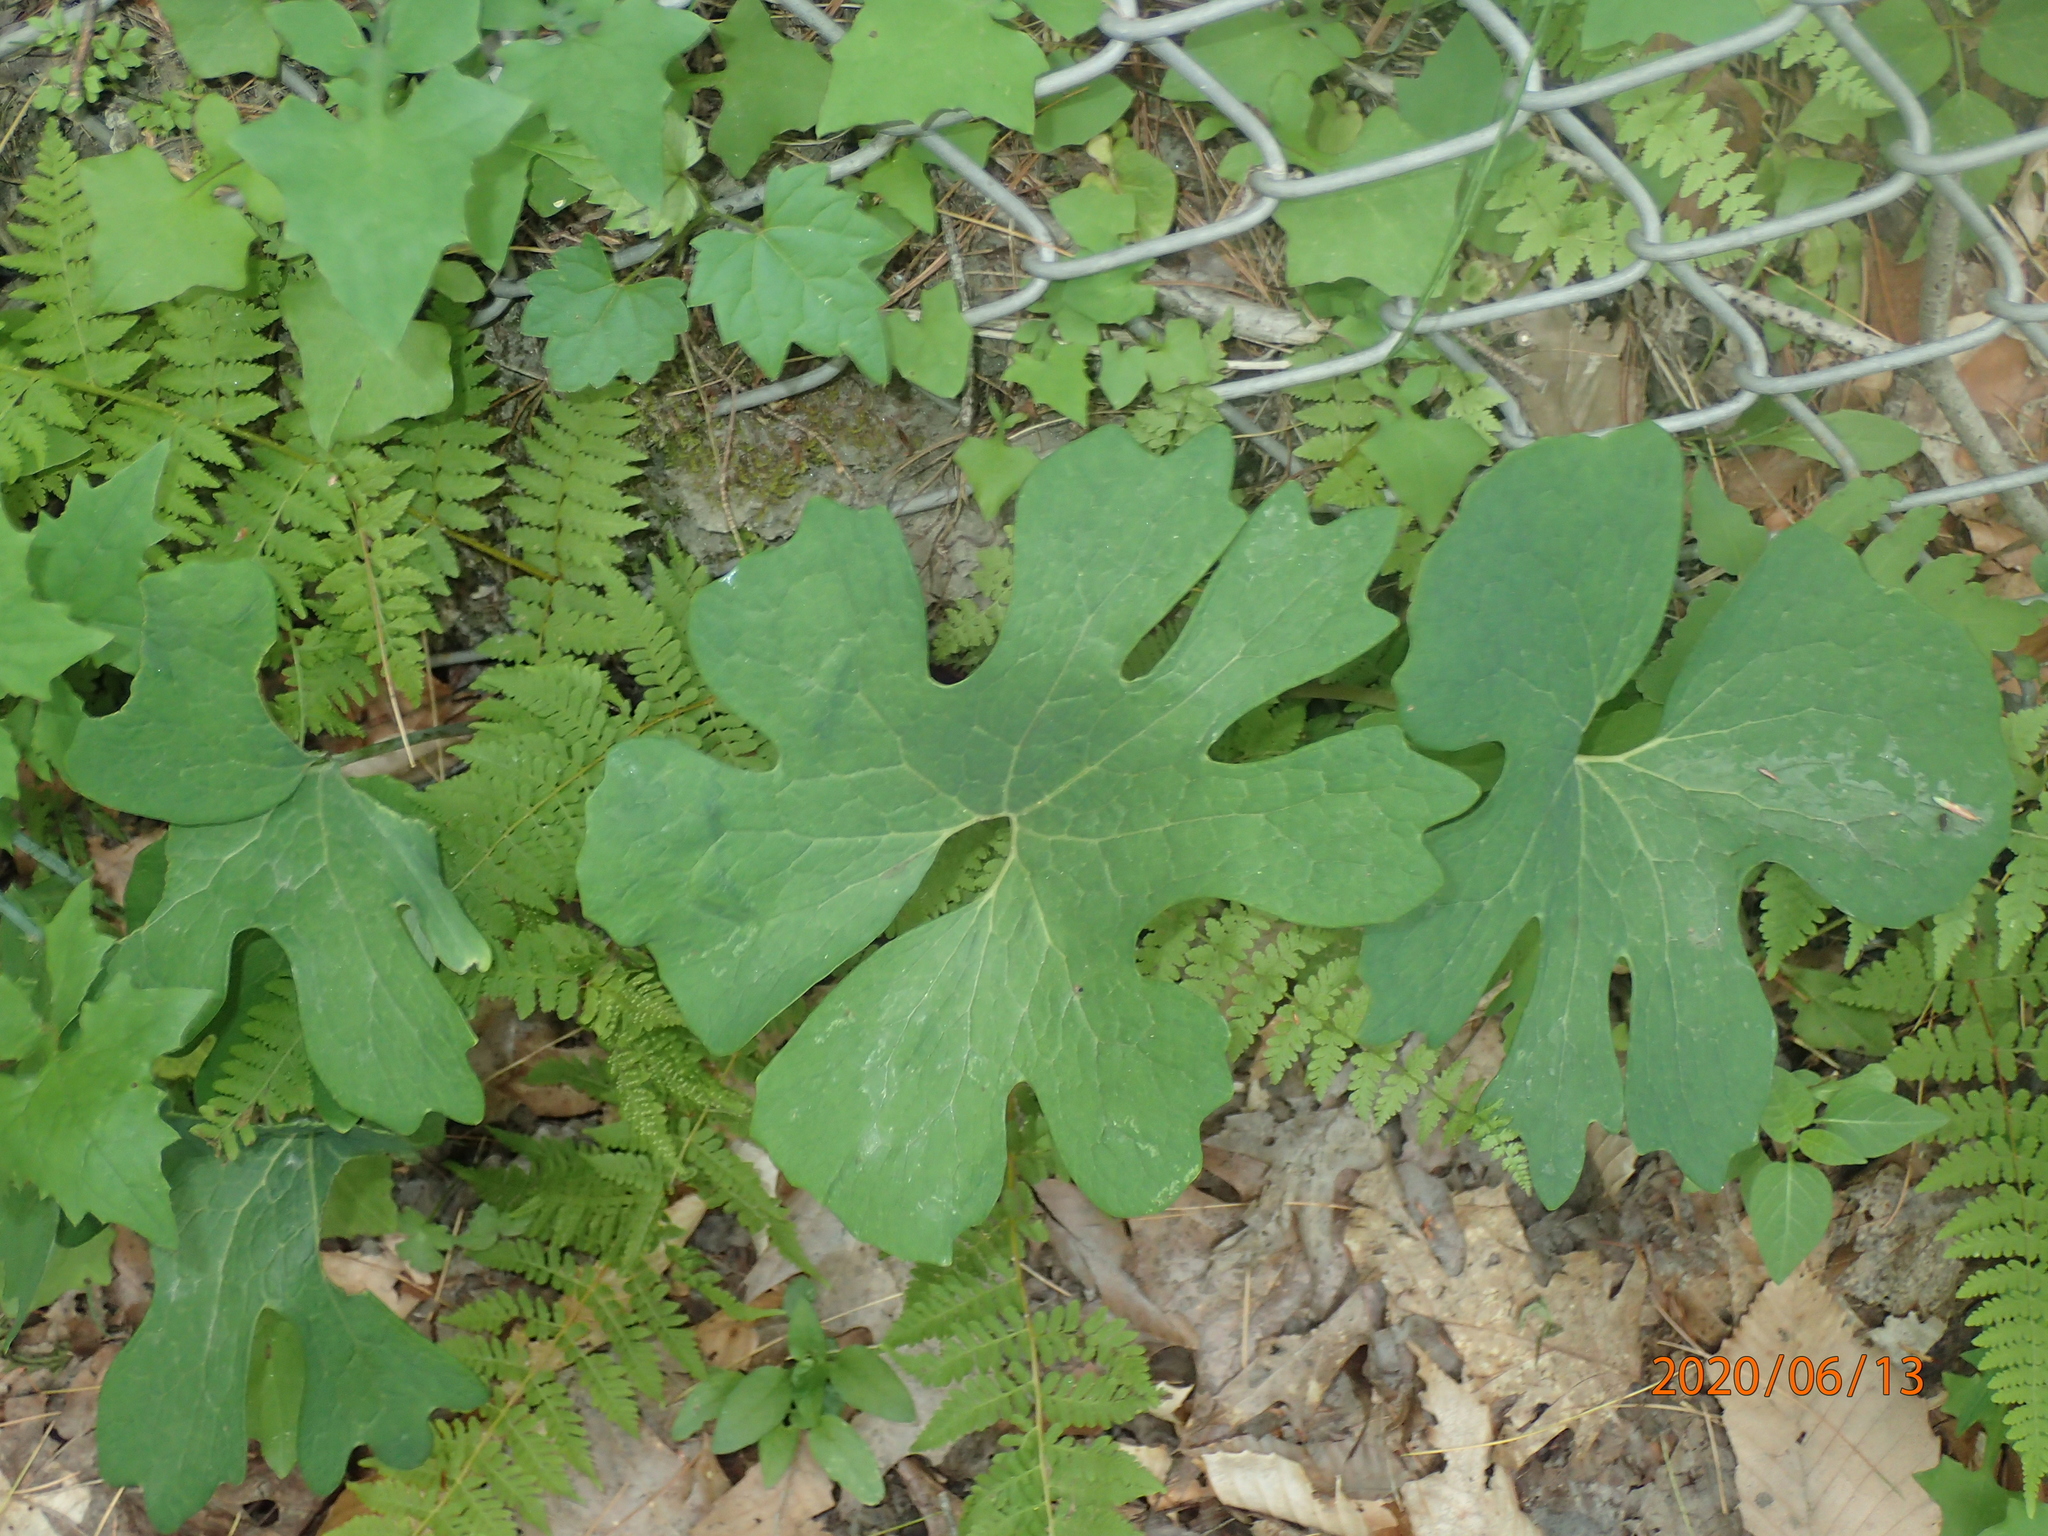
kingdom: Plantae
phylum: Tracheophyta
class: Magnoliopsida
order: Ranunculales
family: Papaveraceae
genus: Sanguinaria
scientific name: Sanguinaria canadensis
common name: Bloodroot
